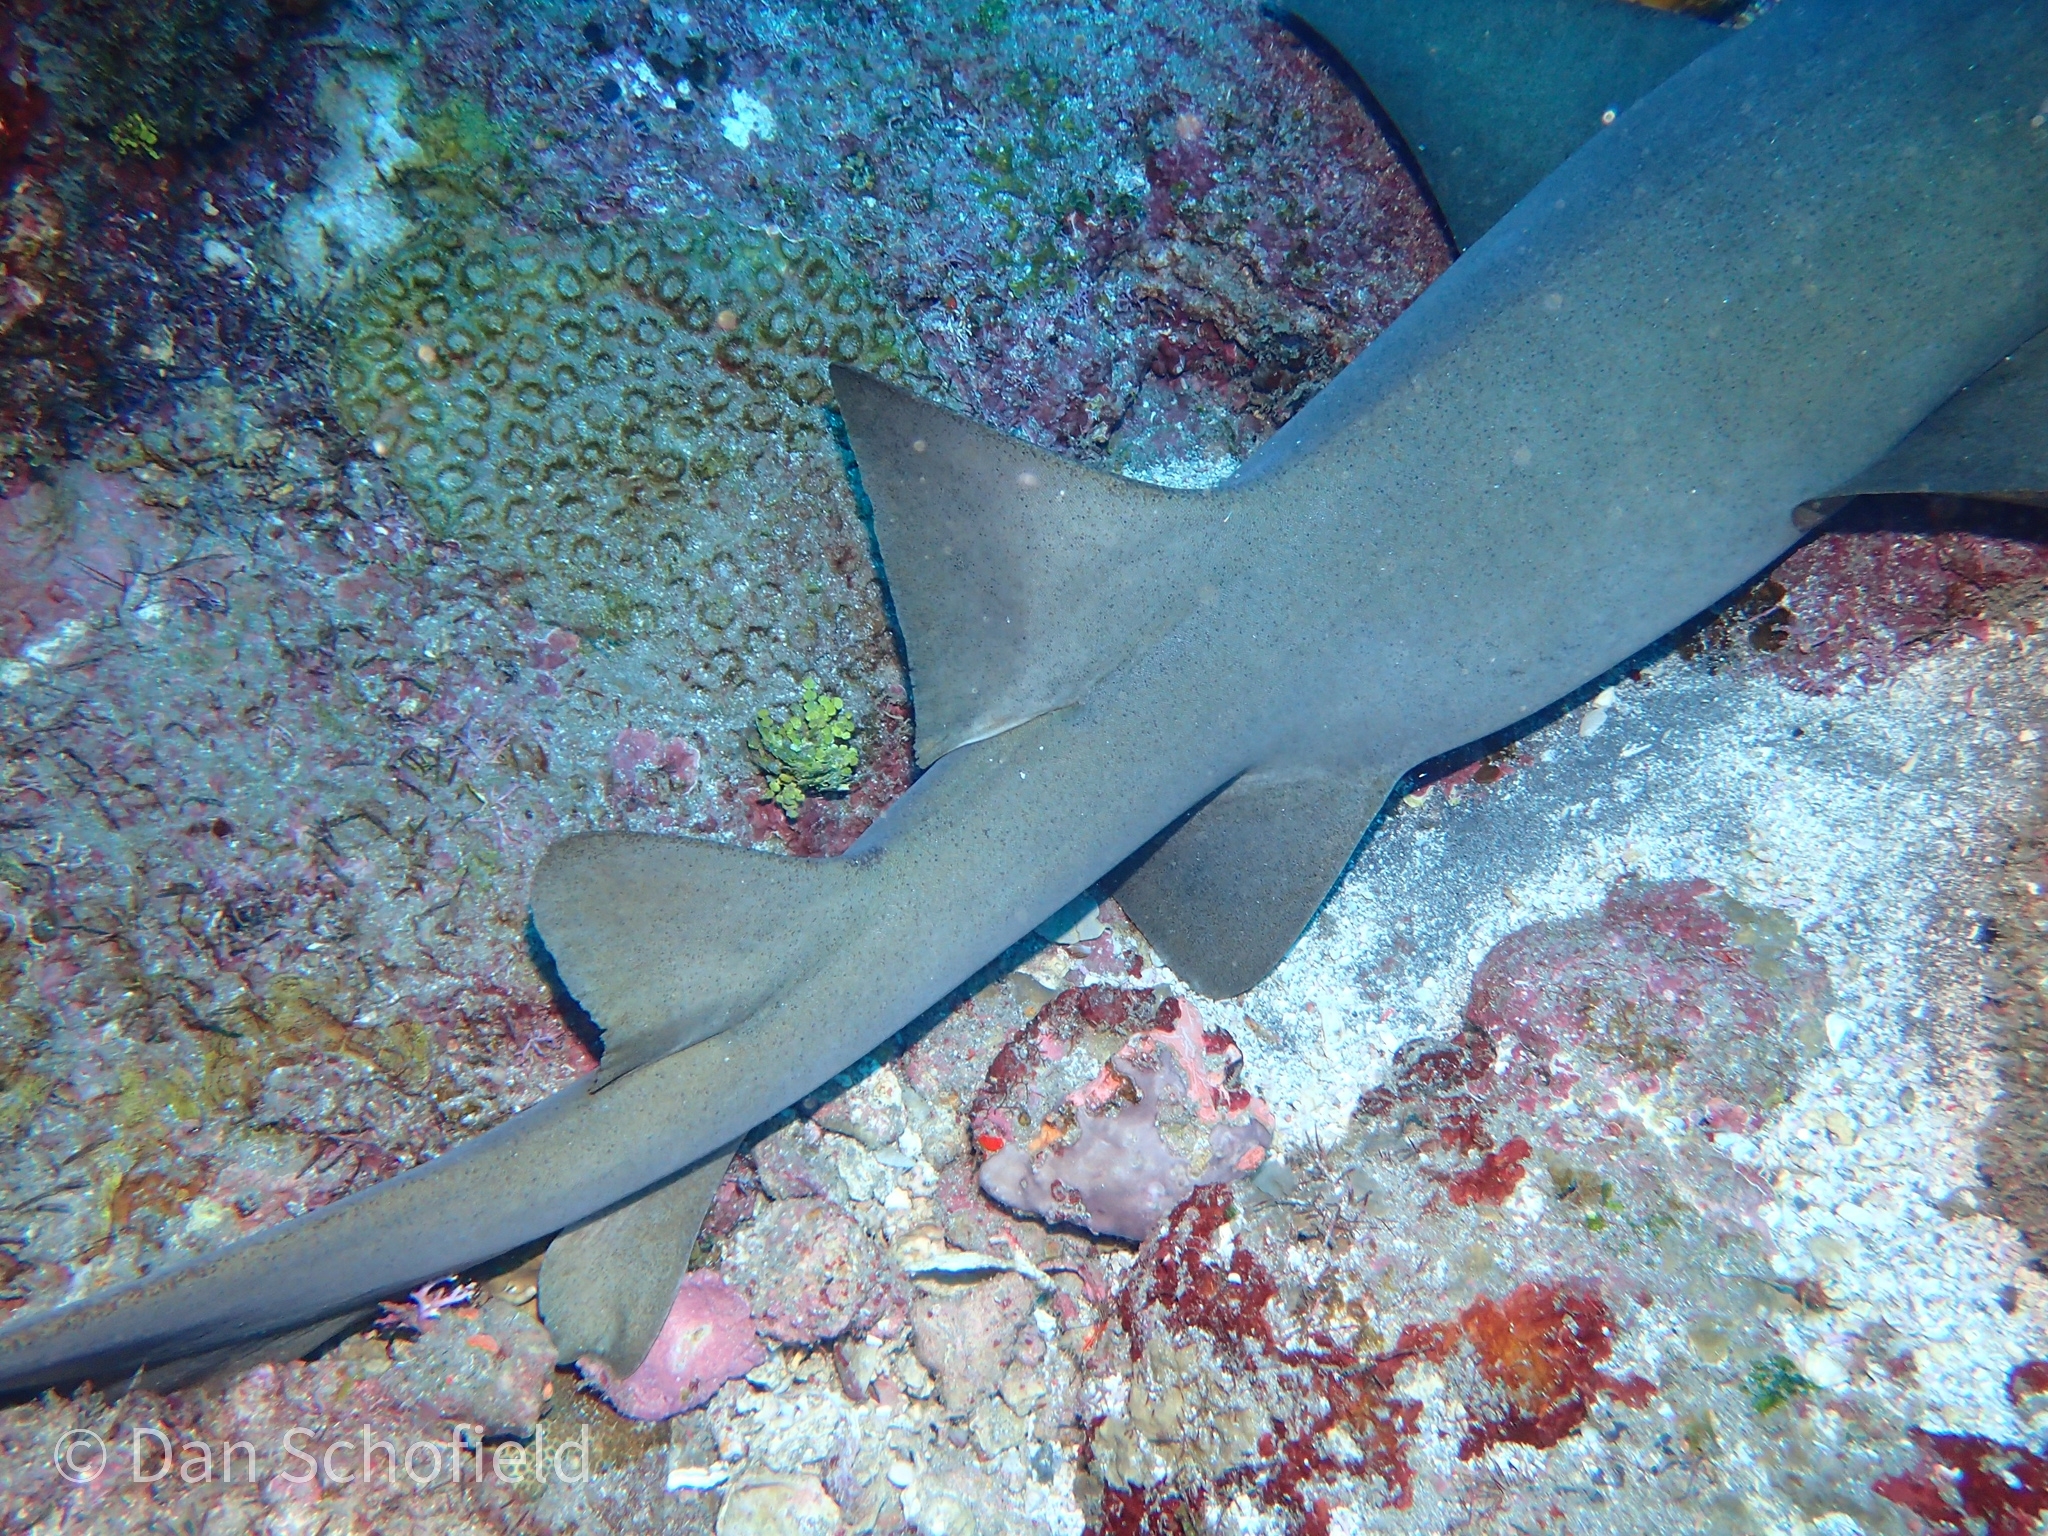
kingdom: Animalia
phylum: Chordata
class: Elasmobranchii
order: Orectolobiformes
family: Ginglymostomatidae
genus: Ginglymostoma
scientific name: Ginglymostoma cirratum
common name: Nurse shark
